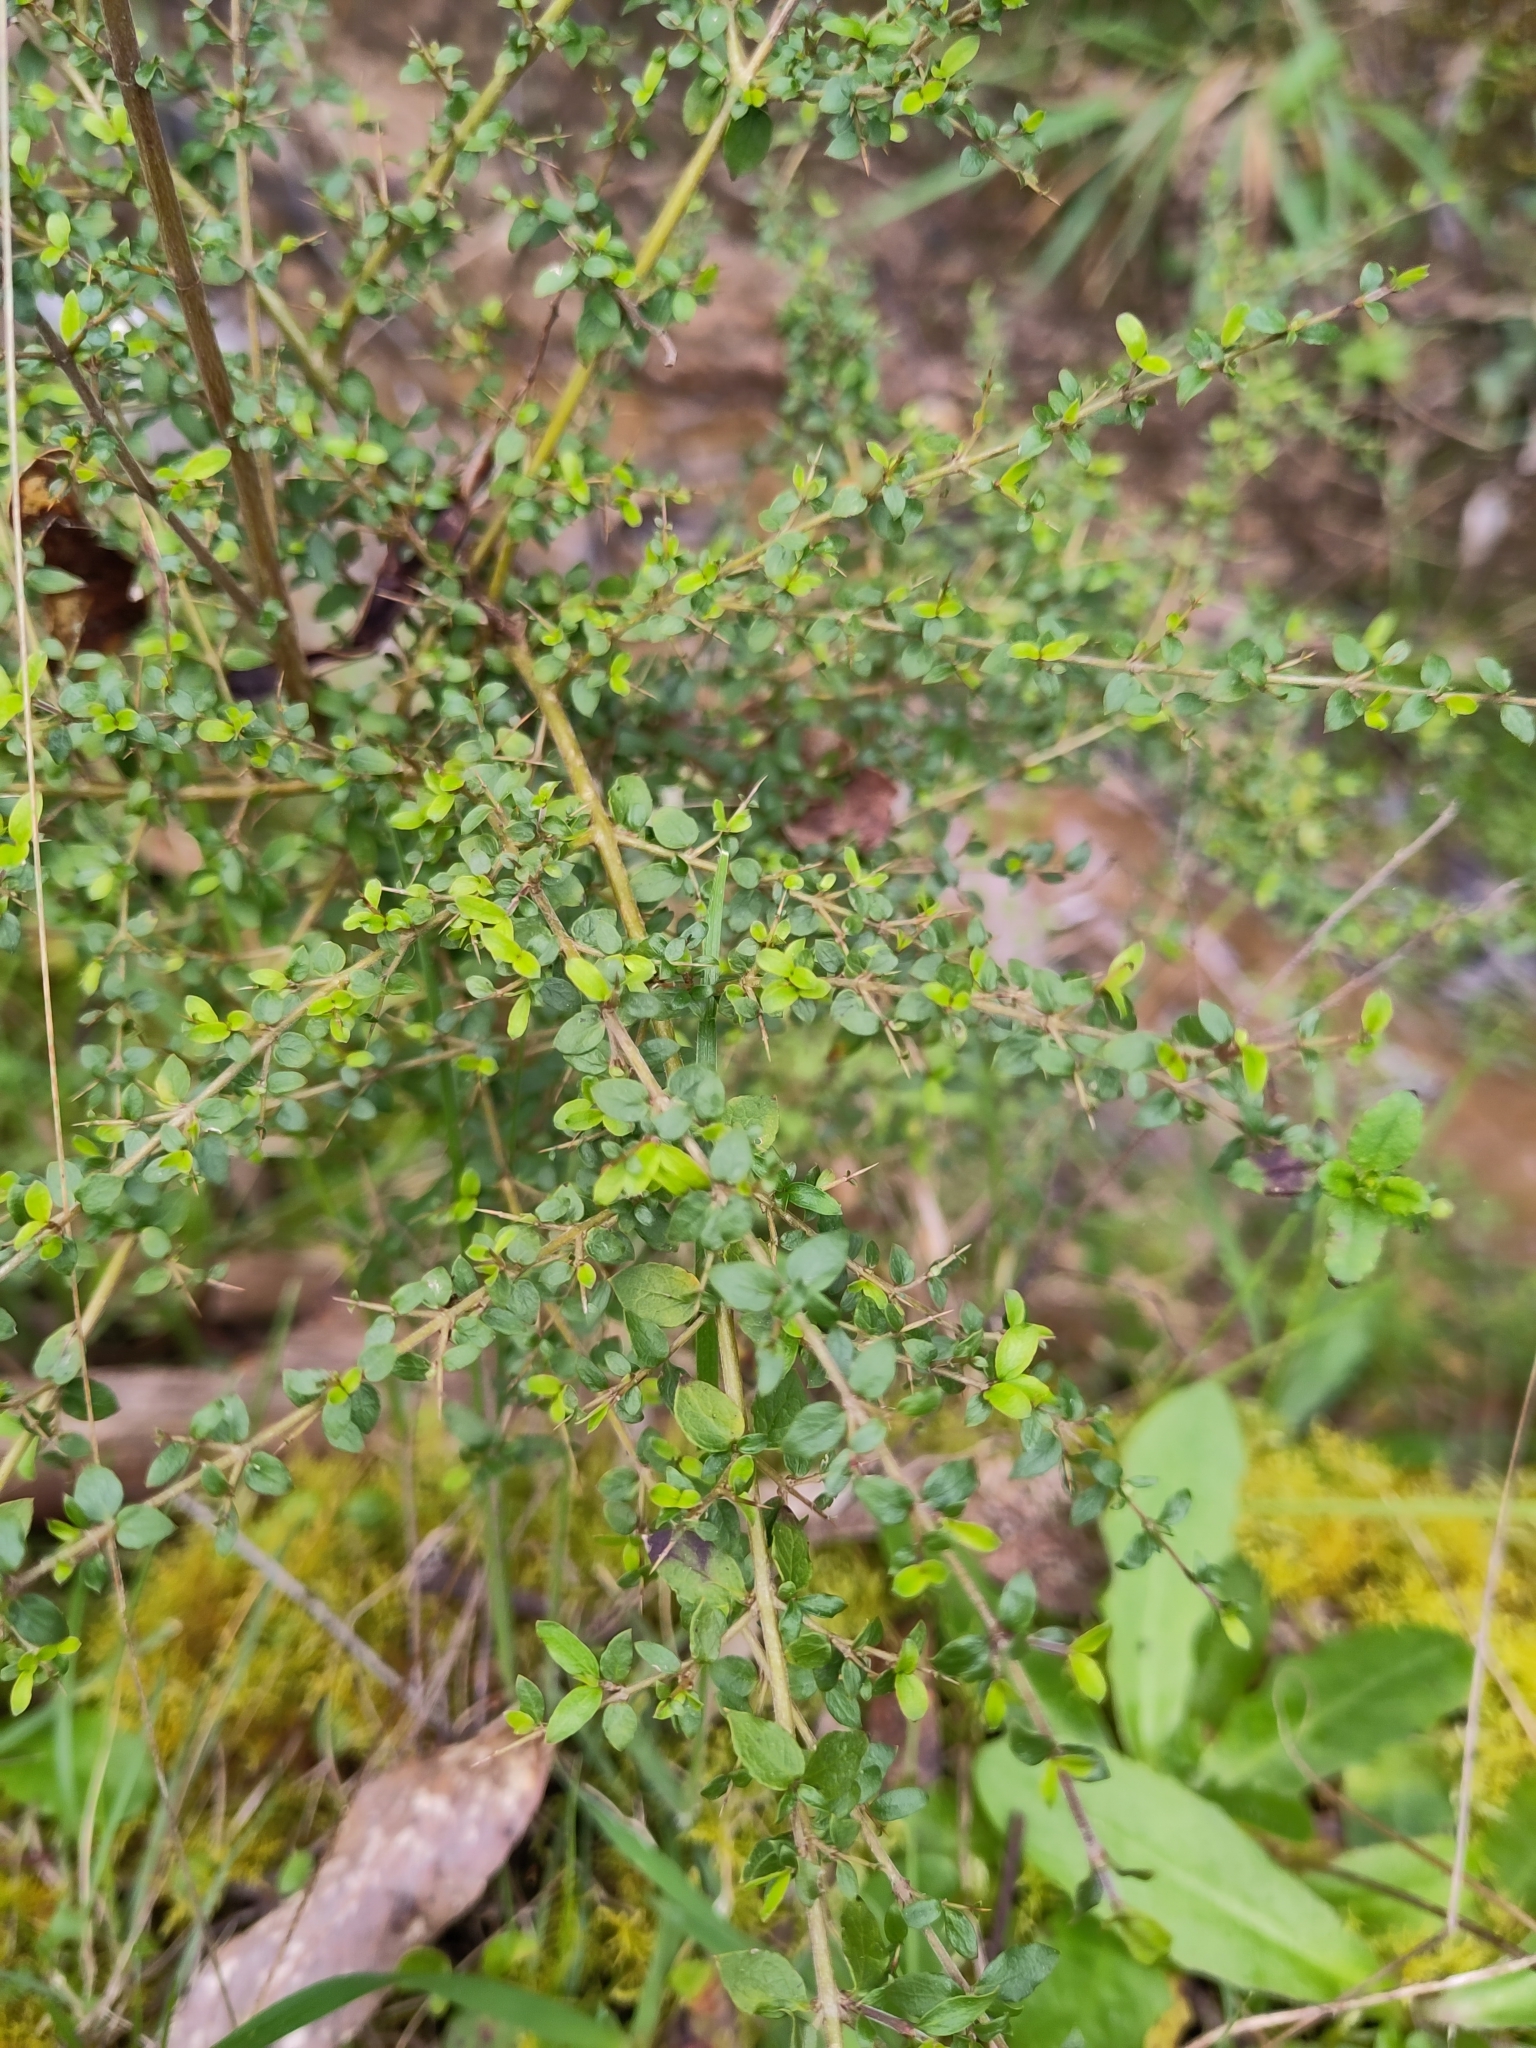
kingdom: Plantae
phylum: Tracheophyta
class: Magnoliopsida
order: Gentianales
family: Rubiaceae
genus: Coprosma
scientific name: Coprosma quadrifida
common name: Prickly currantbush
